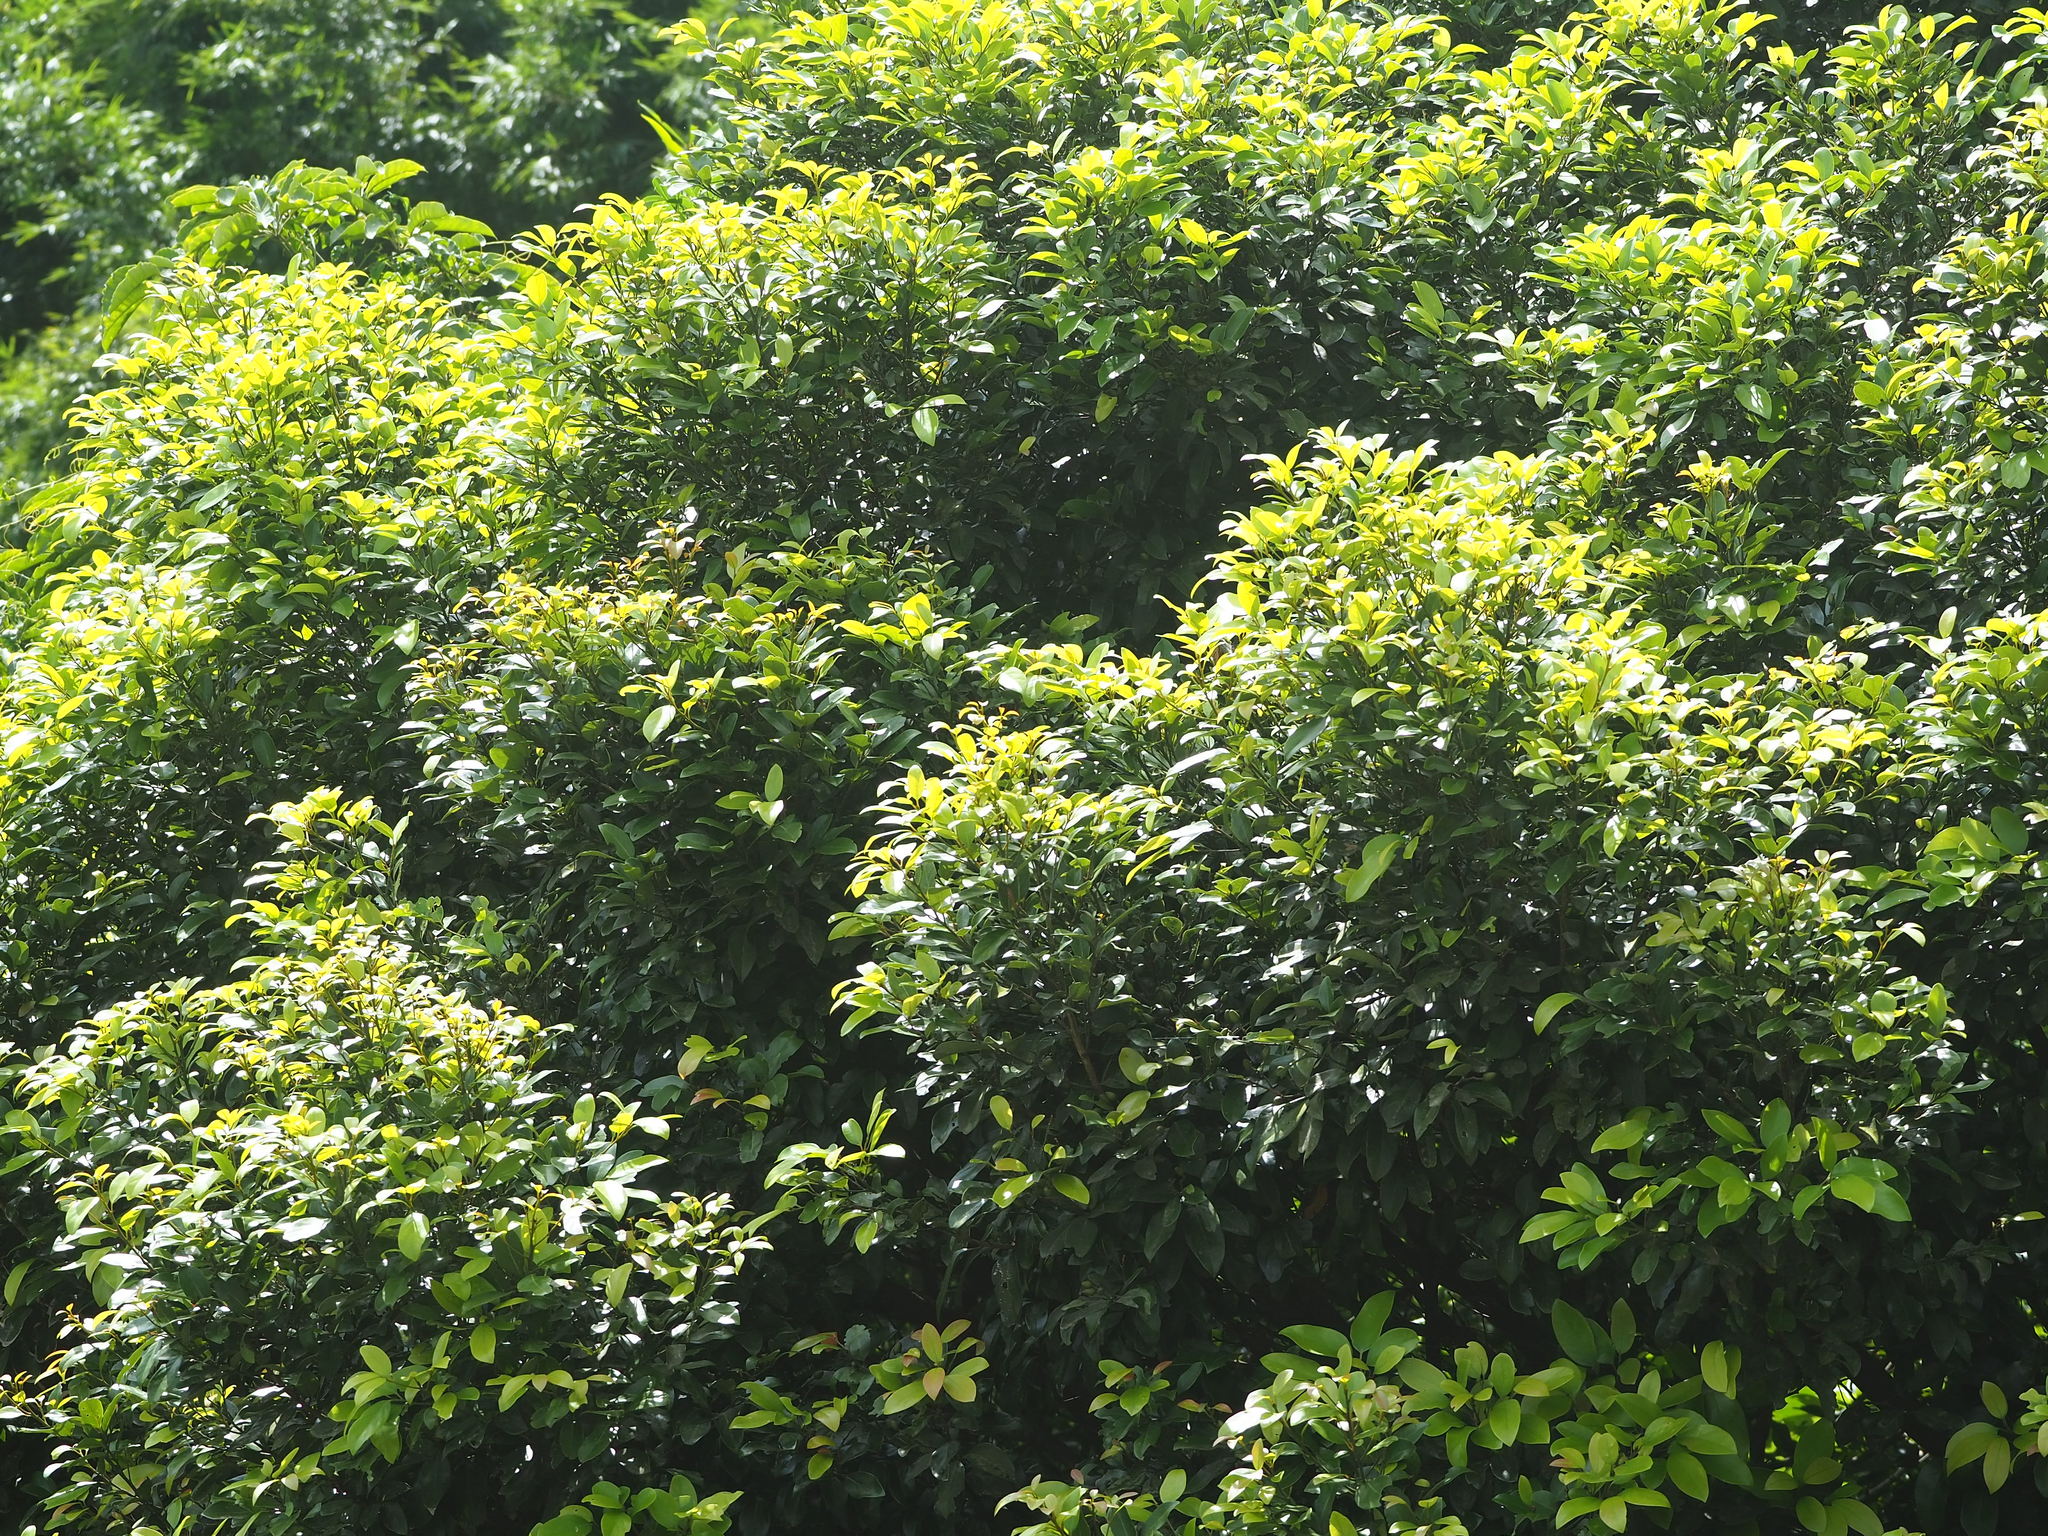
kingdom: Plantae
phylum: Tracheophyta
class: Magnoliopsida
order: Laurales
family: Lauraceae
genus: Cryptocarya
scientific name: Cryptocarya concinna
